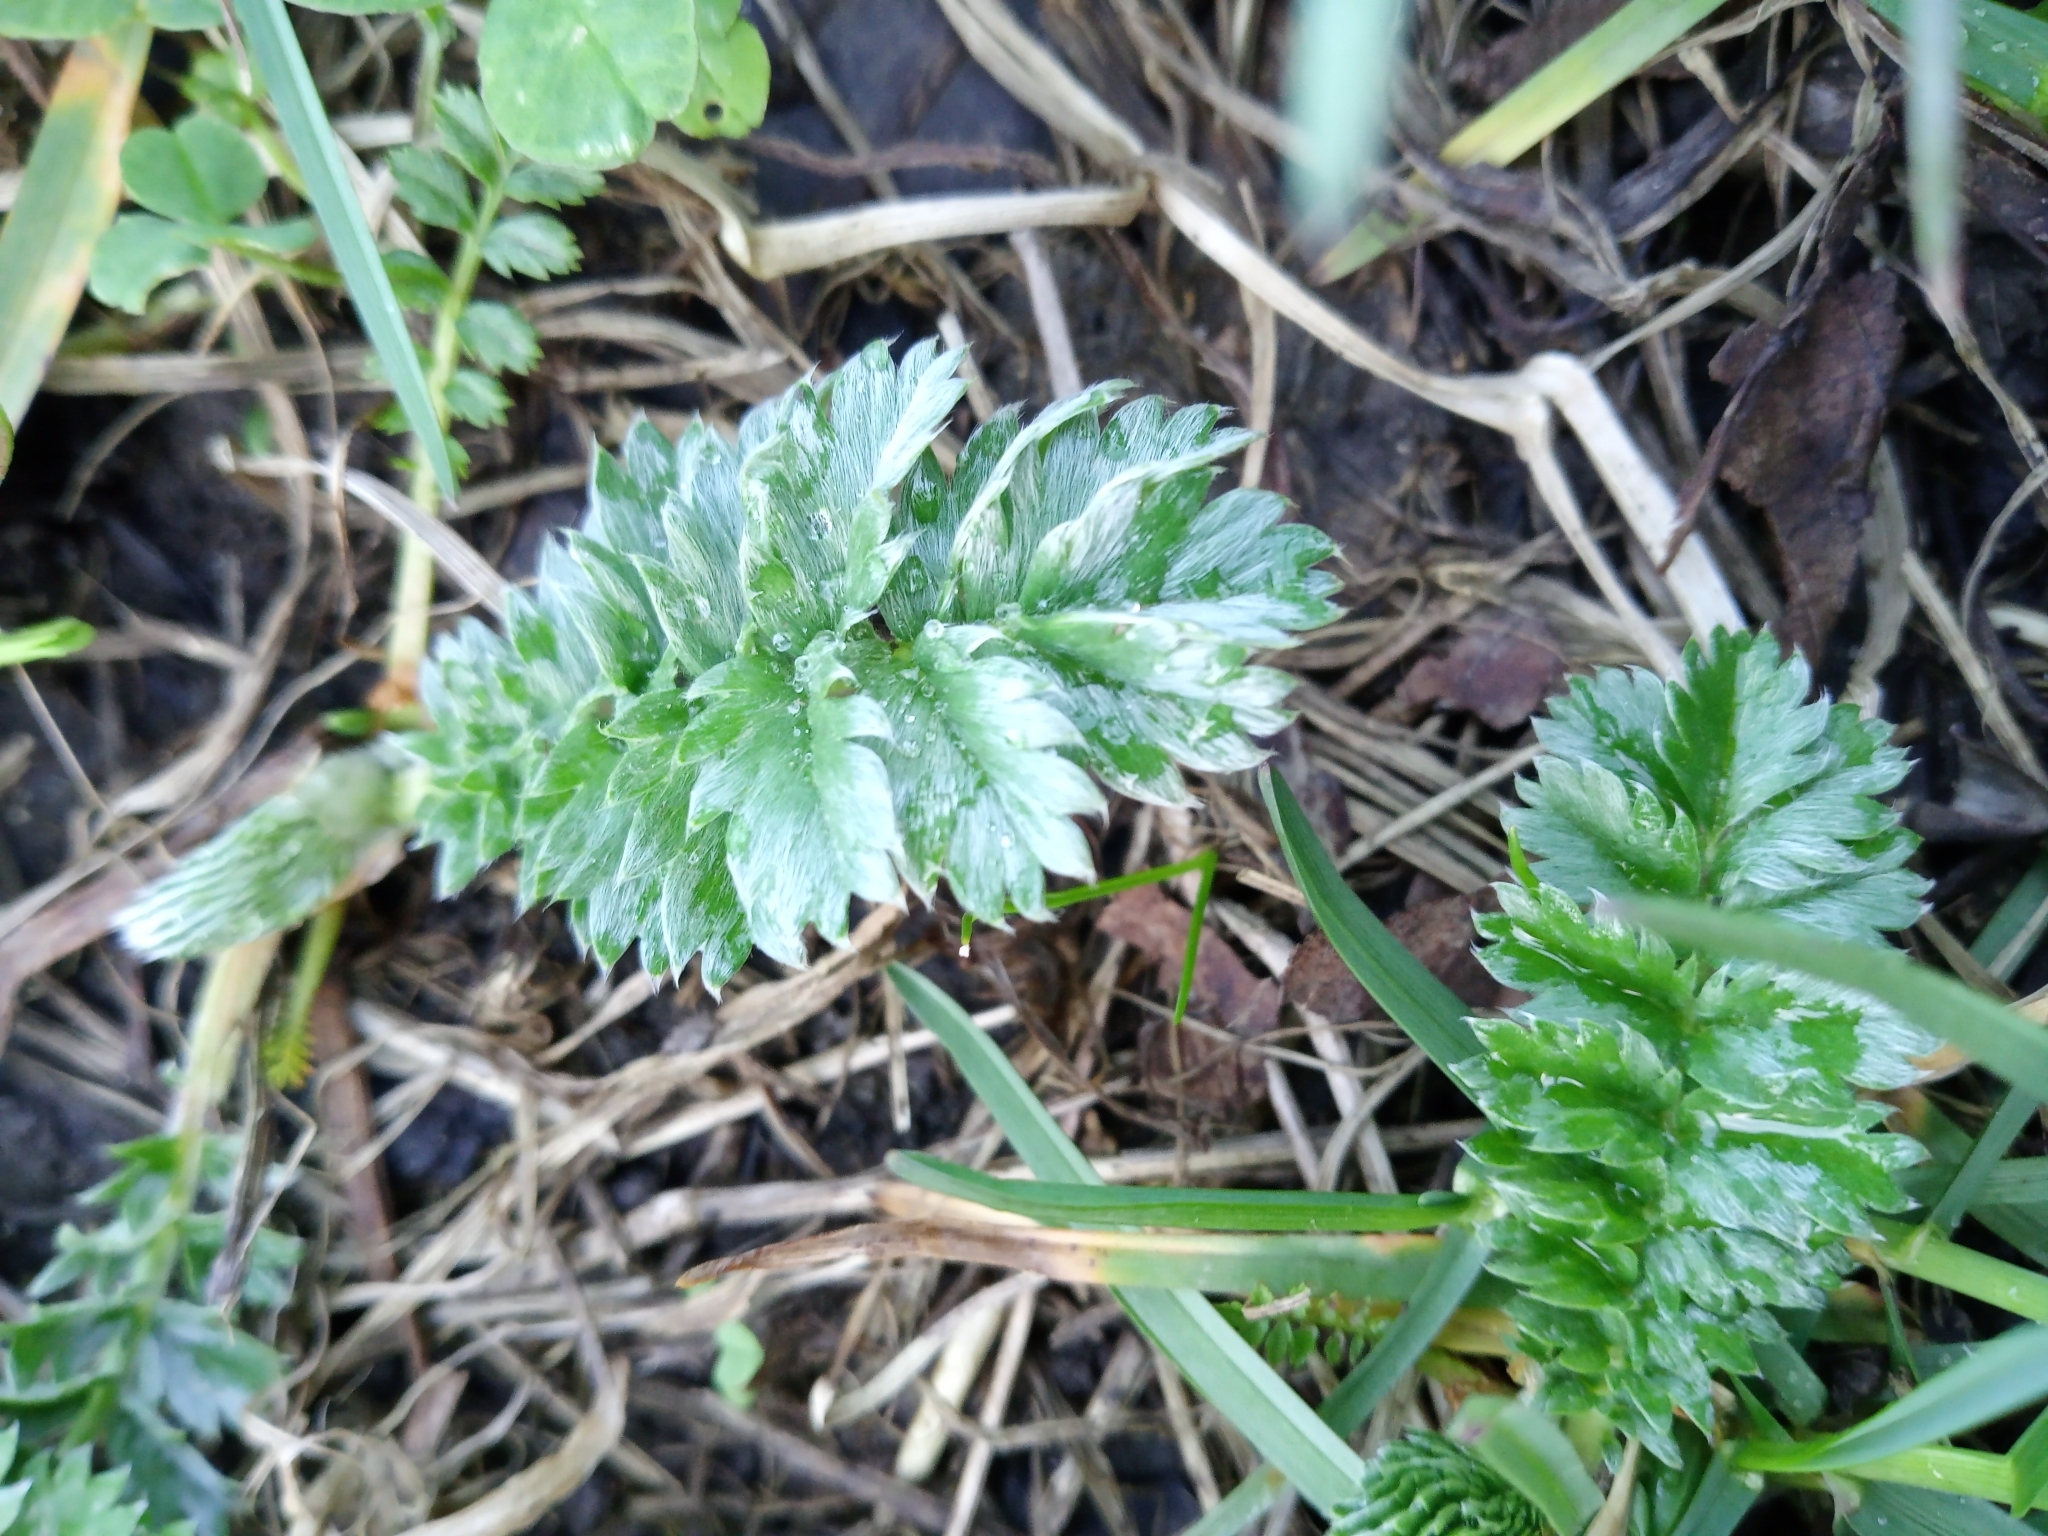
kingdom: Plantae
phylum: Tracheophyta
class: Magnoliopsida
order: Rosales
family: Rosaceae
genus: Argentina
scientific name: Argentina anserina
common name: Common silverweed
